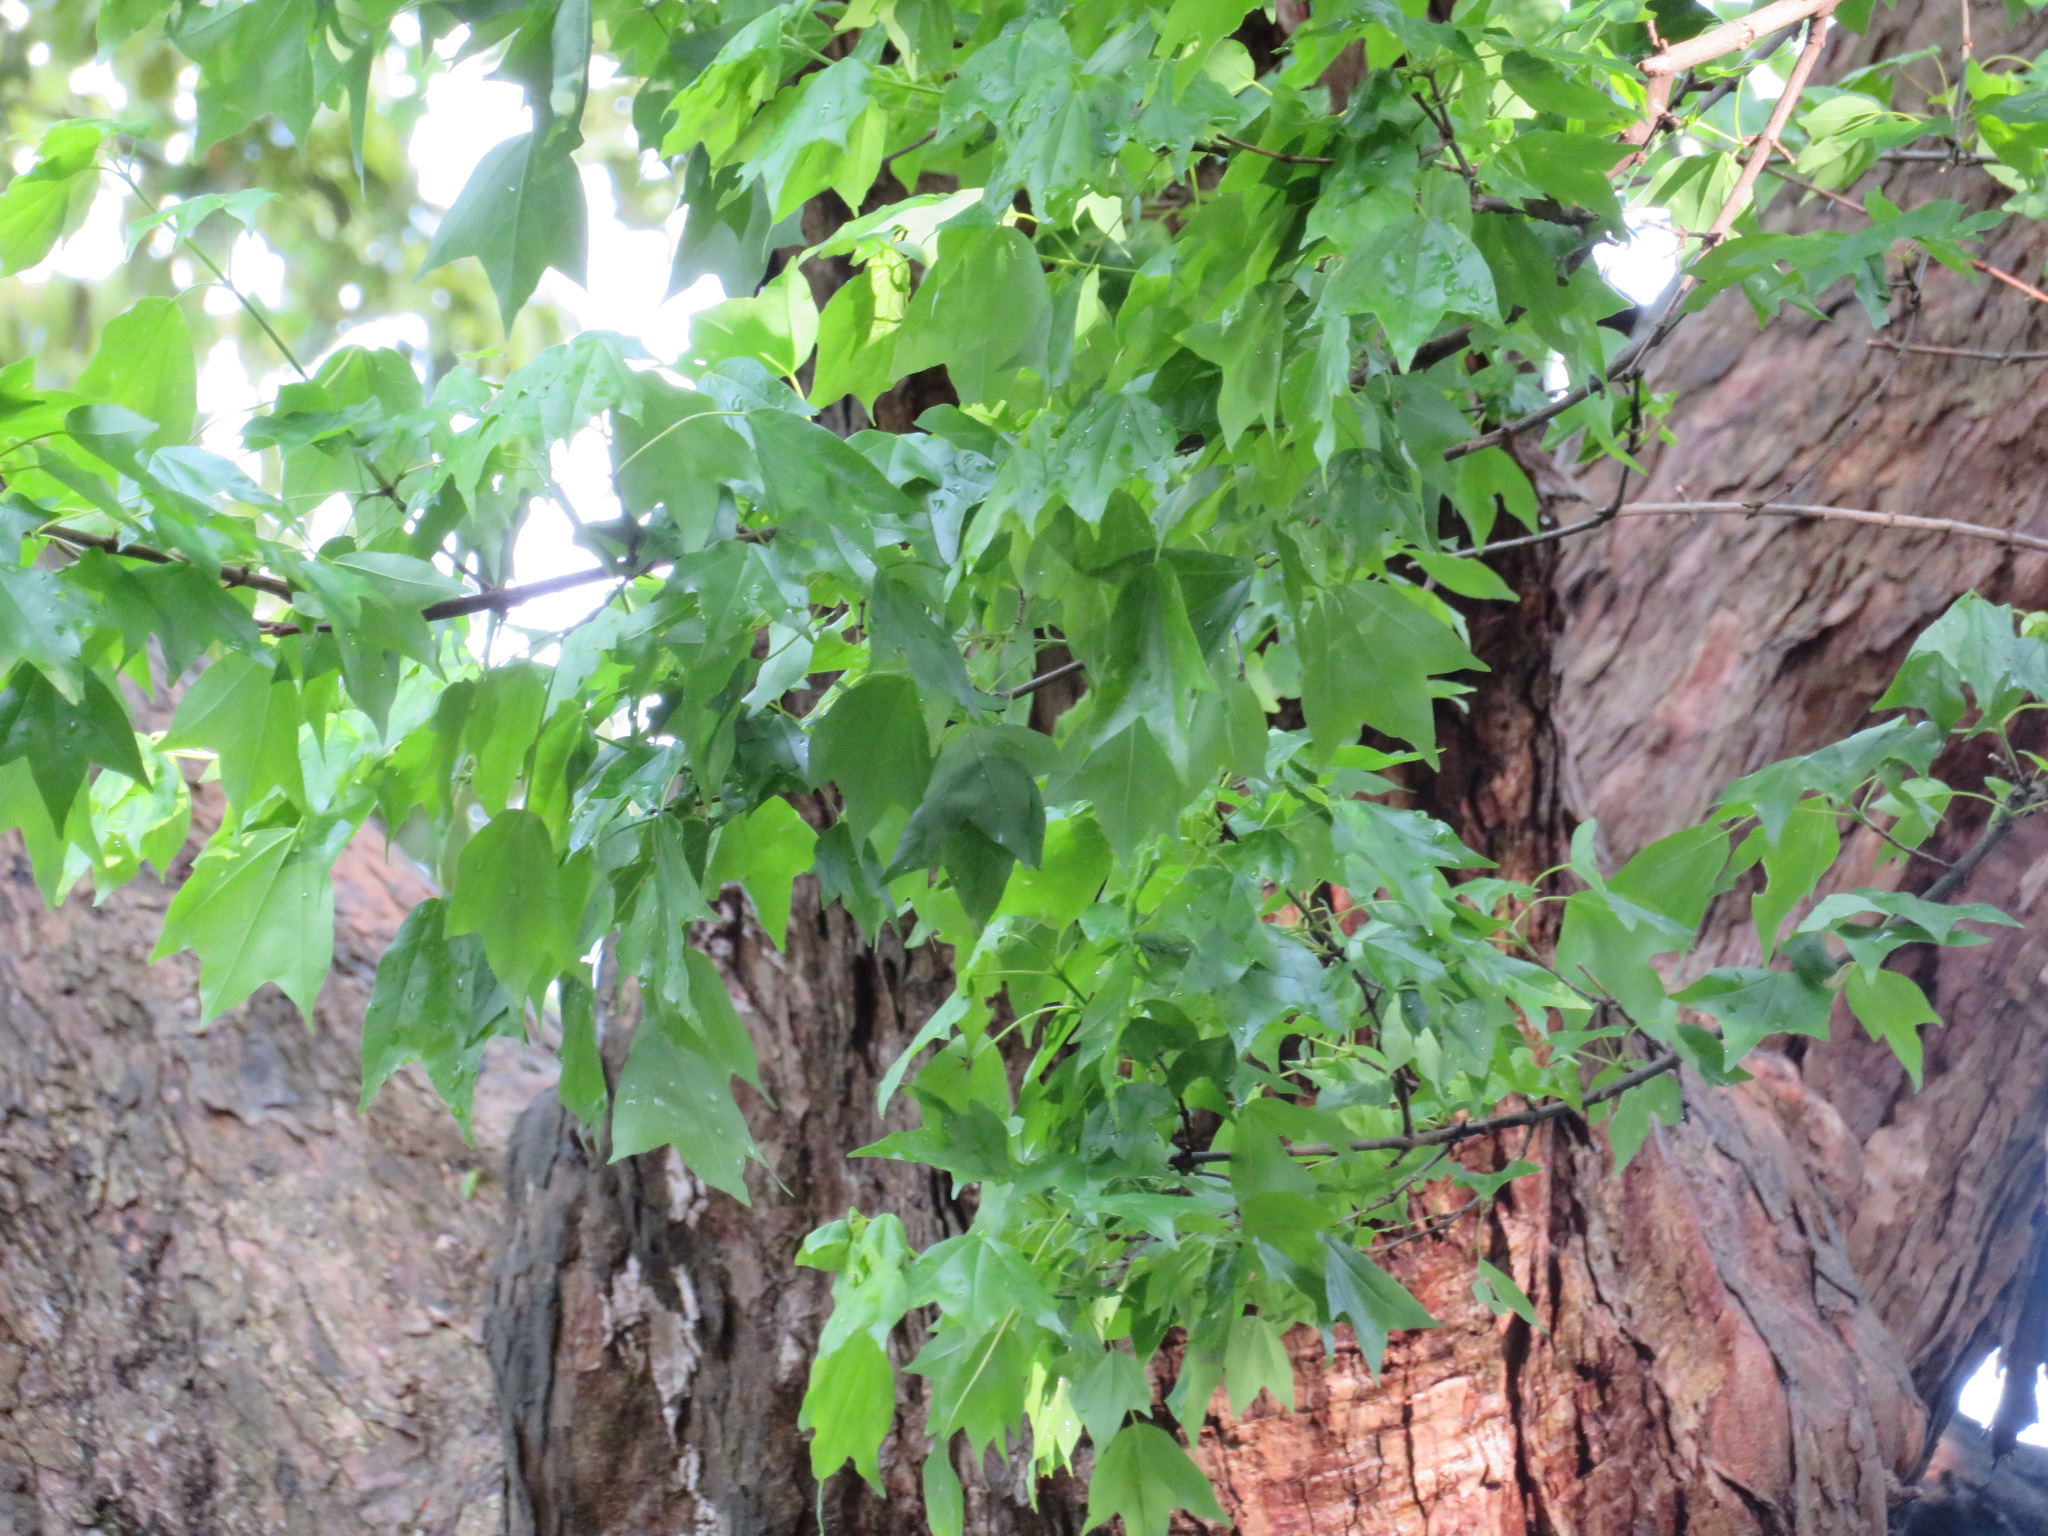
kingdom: Plantae
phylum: Tracheophyta
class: Magnoliopsida
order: Sapindales
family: Sapindaceae
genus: Acer
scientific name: Acer buergerianum
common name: Trident maple
